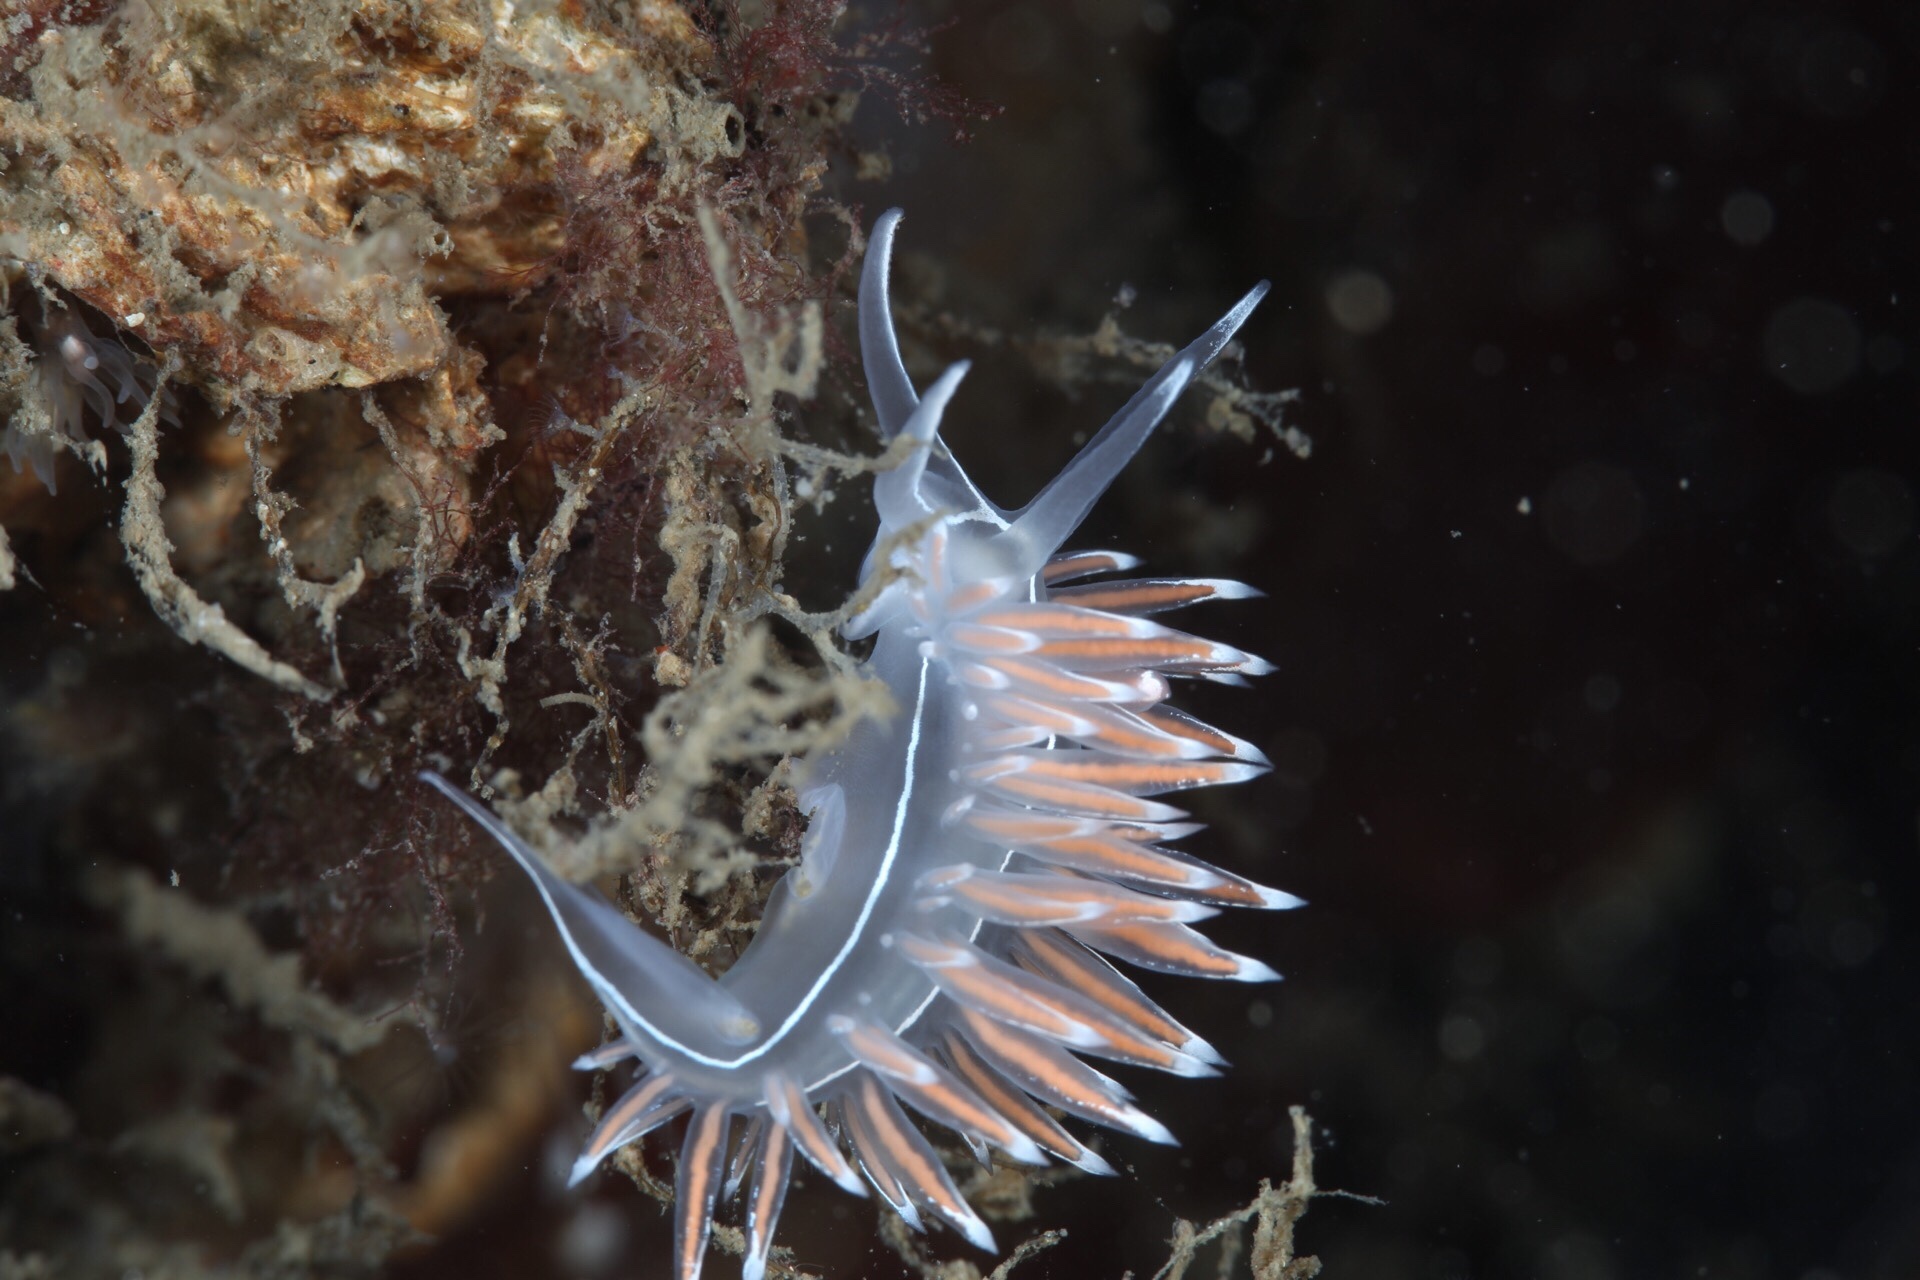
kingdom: Animalia
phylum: Mollusca
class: Gastropoda
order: Nudibranchia
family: Coryphellidae
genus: Coryphella
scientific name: Coryphella lineata
